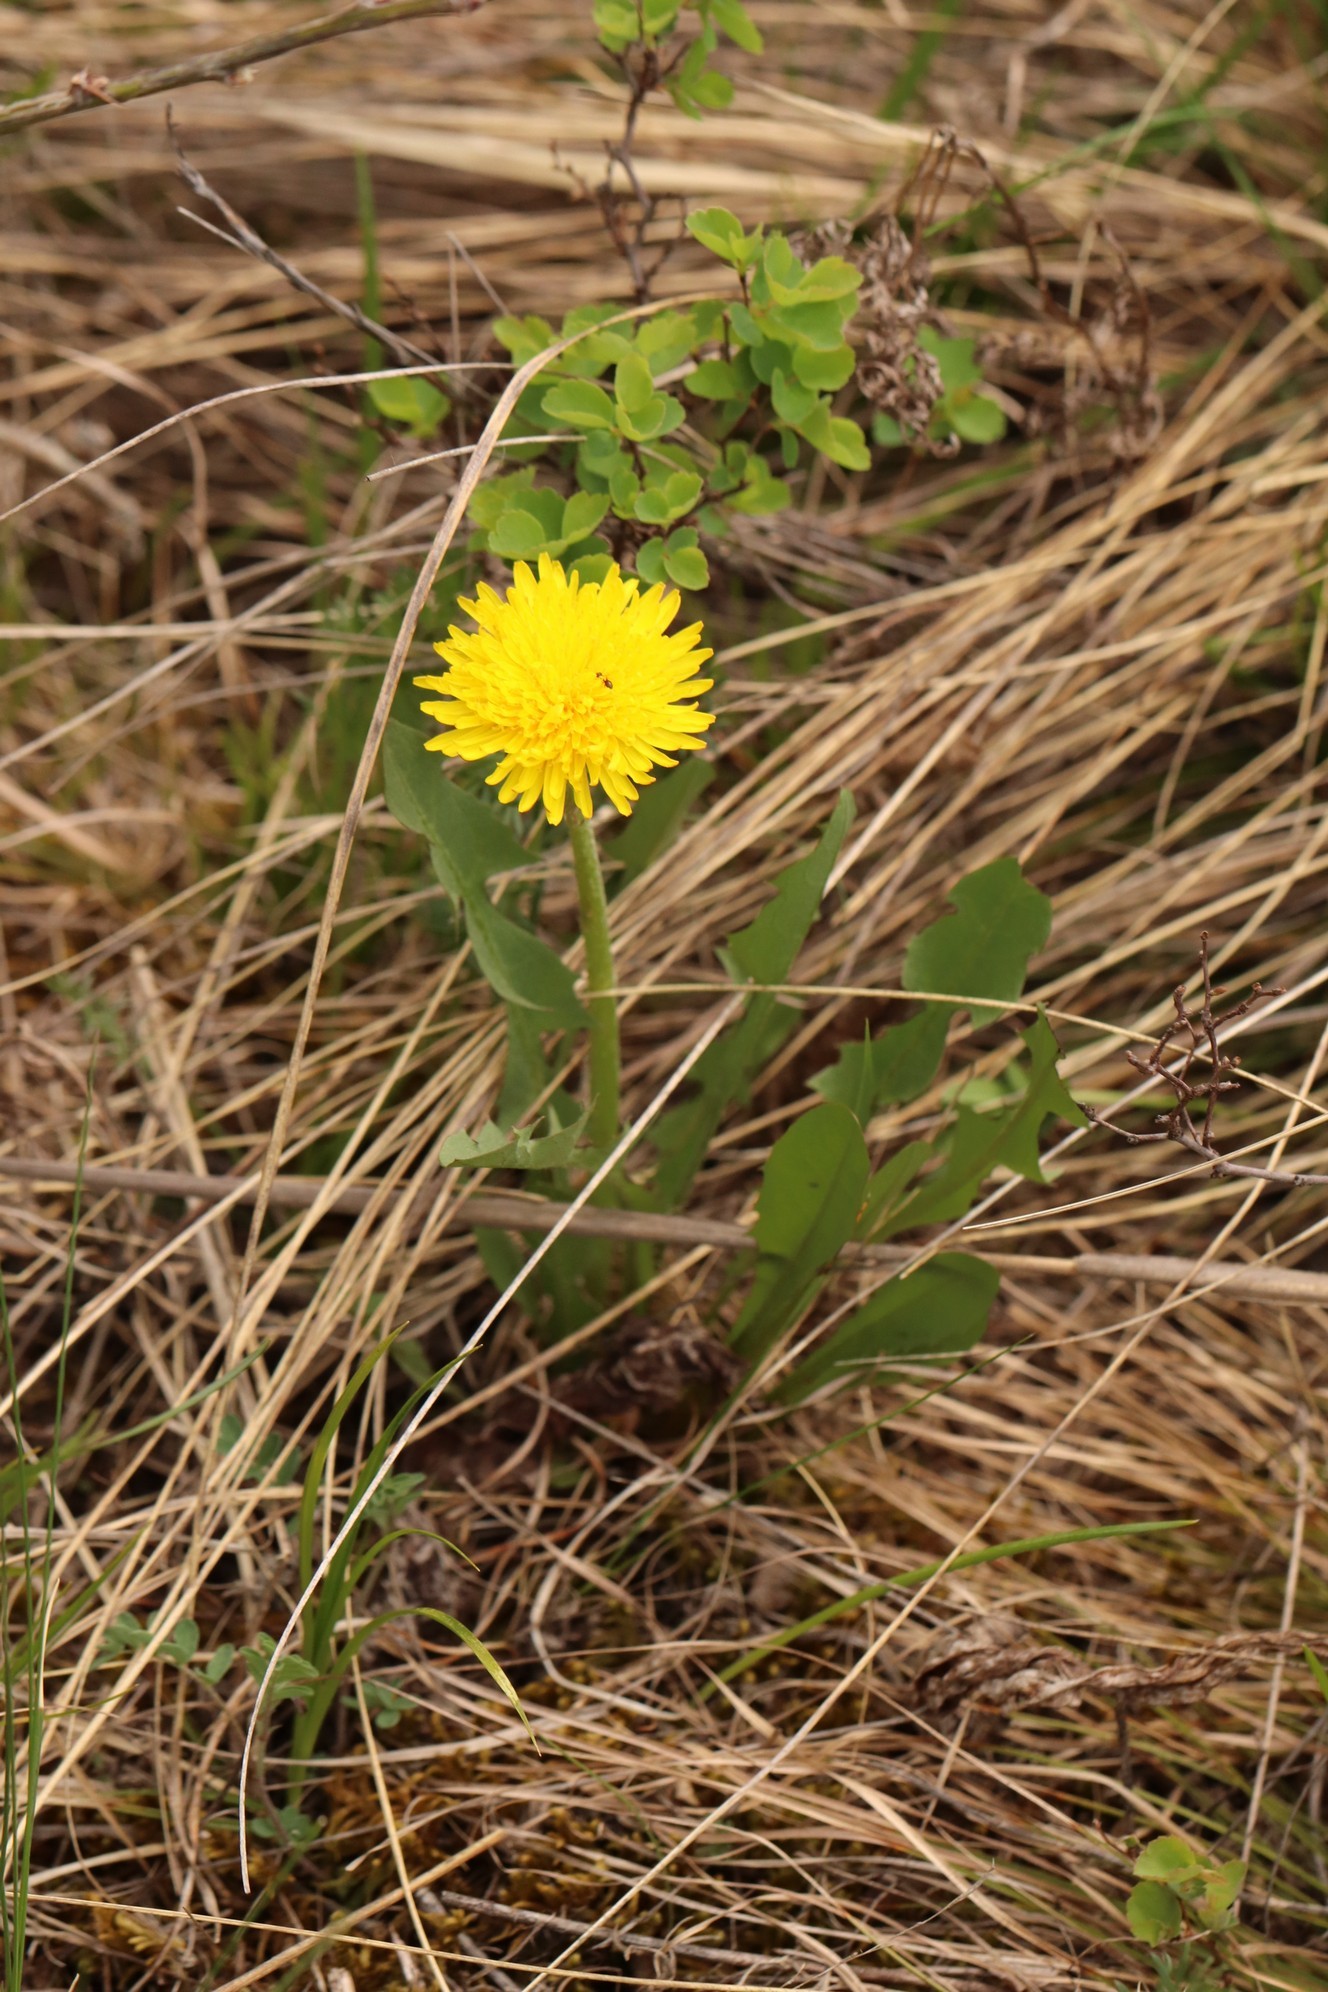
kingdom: Plantae
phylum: Tracheophyta
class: Magnoliopsida
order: Asterales
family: Asteraceae
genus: Taraxacum
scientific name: Taraxacum officinale
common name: Common dandelion
